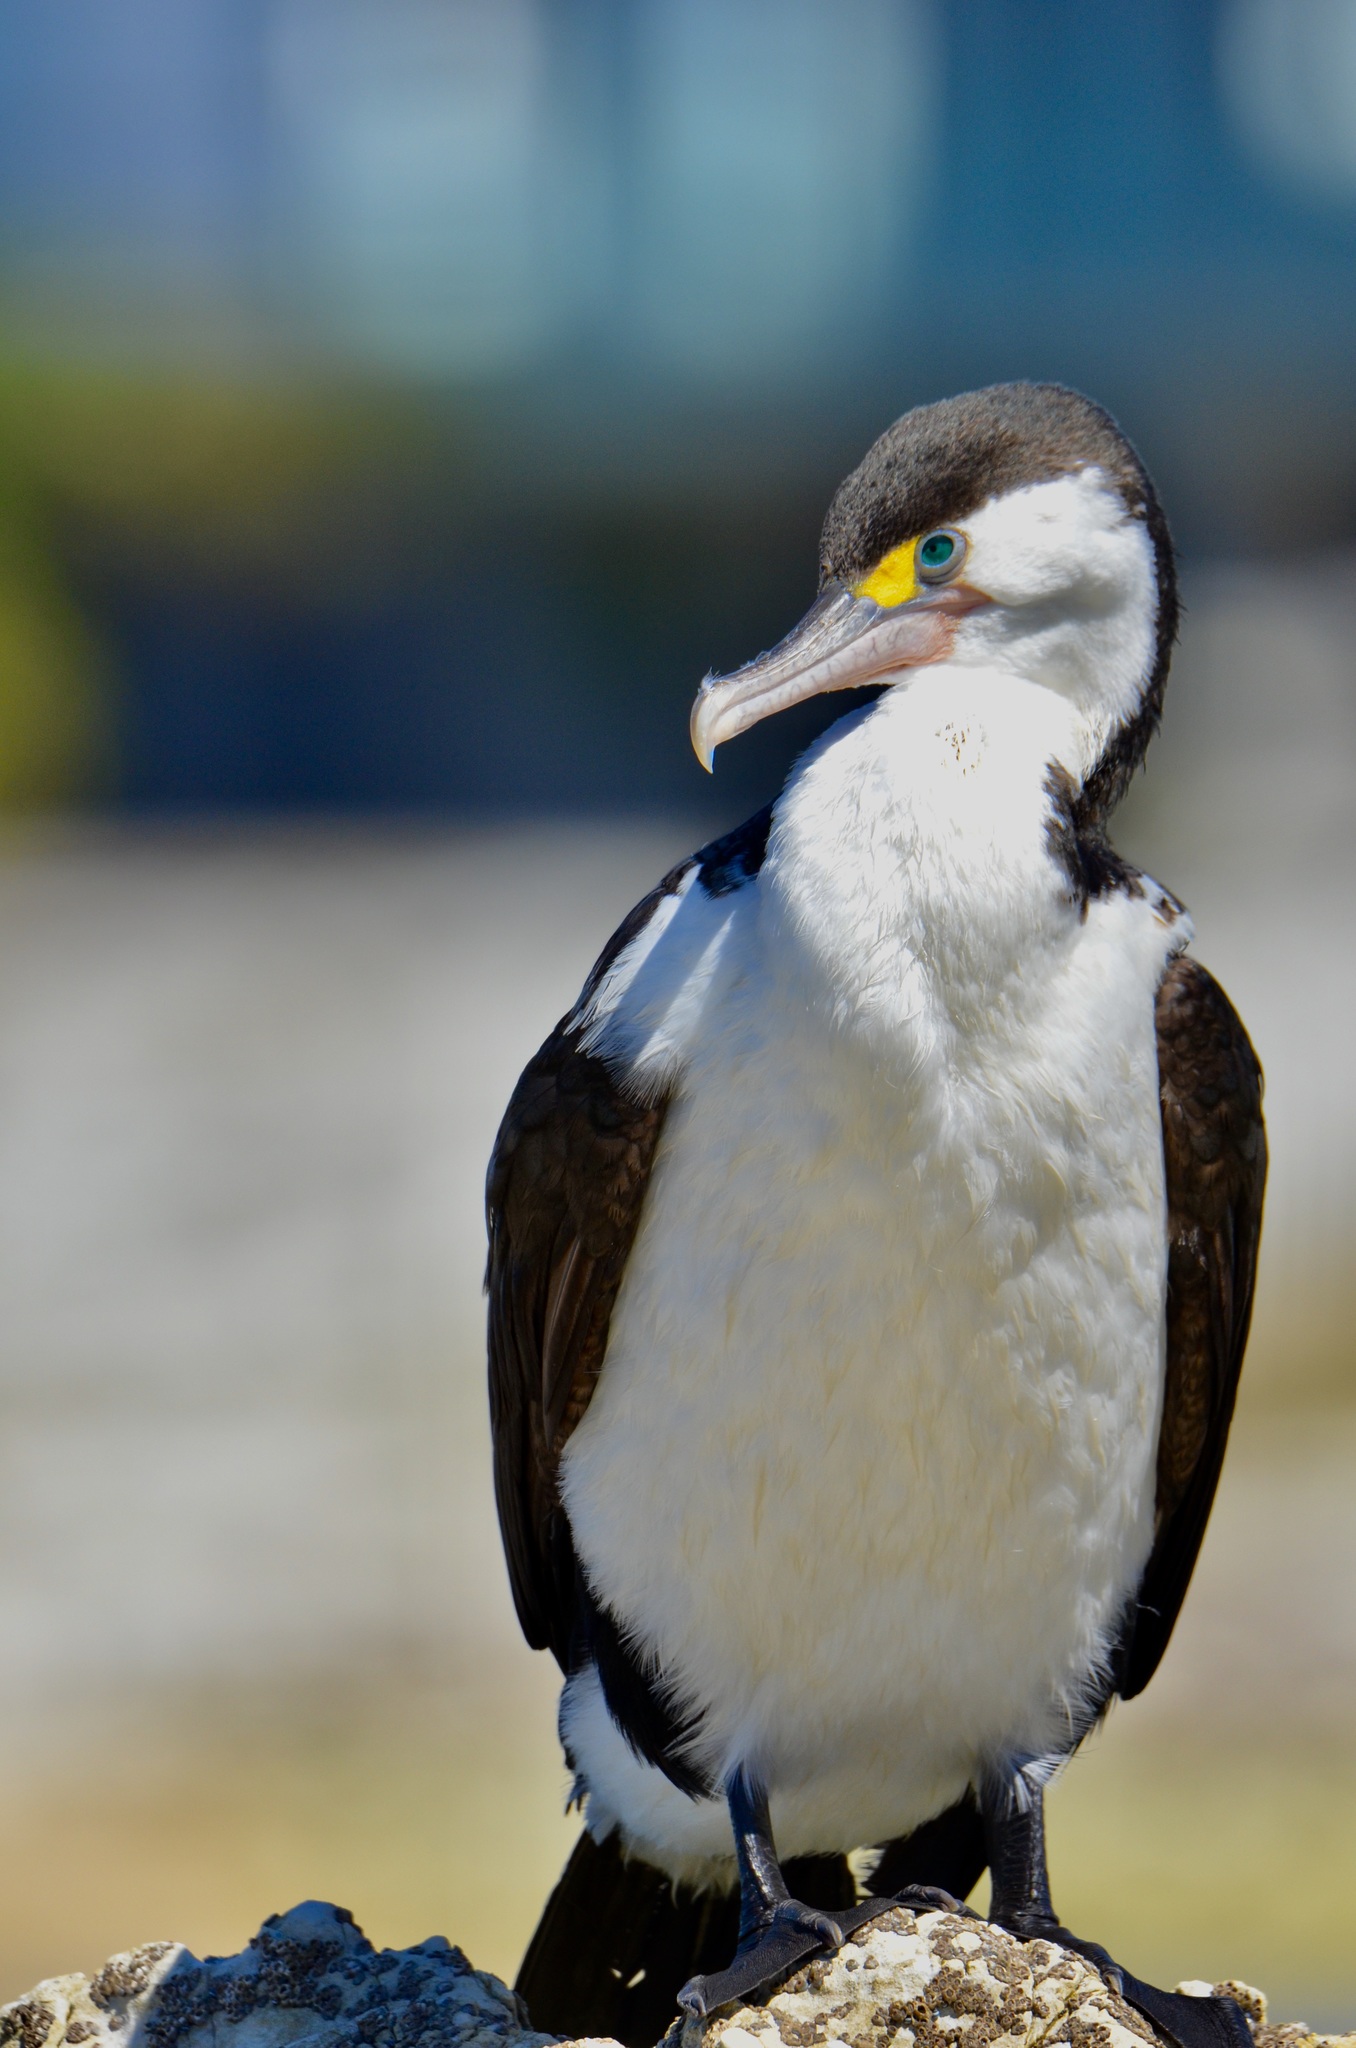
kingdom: Animalia
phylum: Chordata
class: Aves
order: Suliformes
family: Phalacrocoracidae
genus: Phalacrocorax
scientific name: Phalacrocorax varius
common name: Pied cormorant
